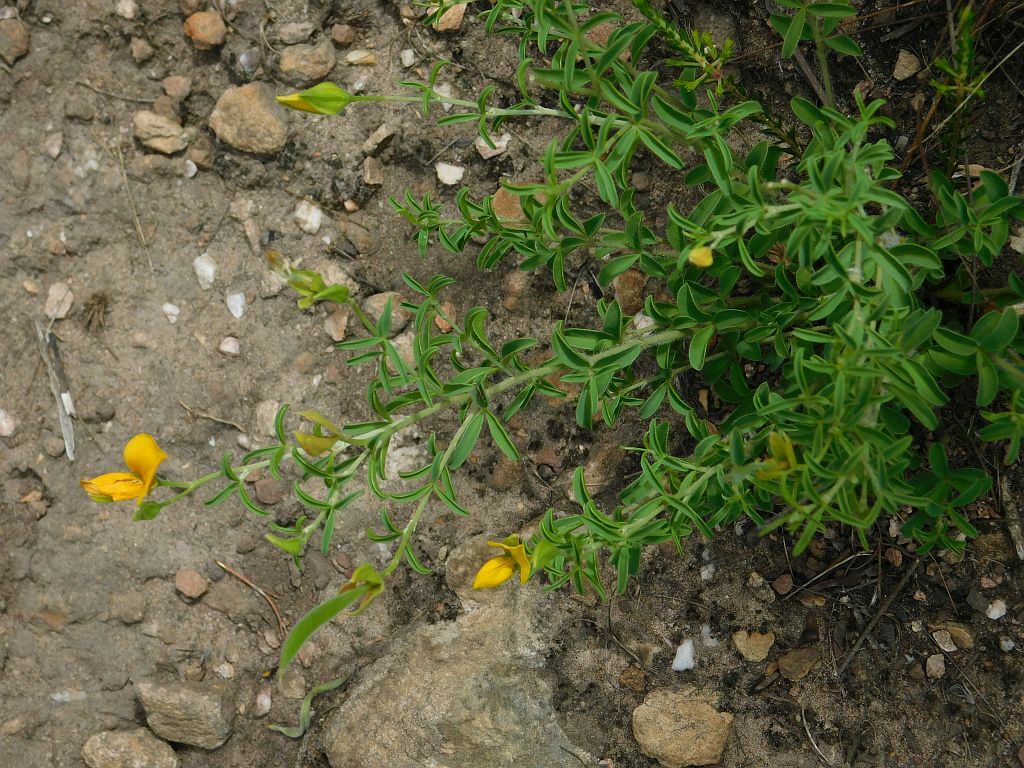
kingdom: Plantae
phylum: Tracheophyta
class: Magnoliopsida
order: Fabales
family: Fabaceae
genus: Argyrolobium
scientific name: Argyrolobium pachyphyllum
